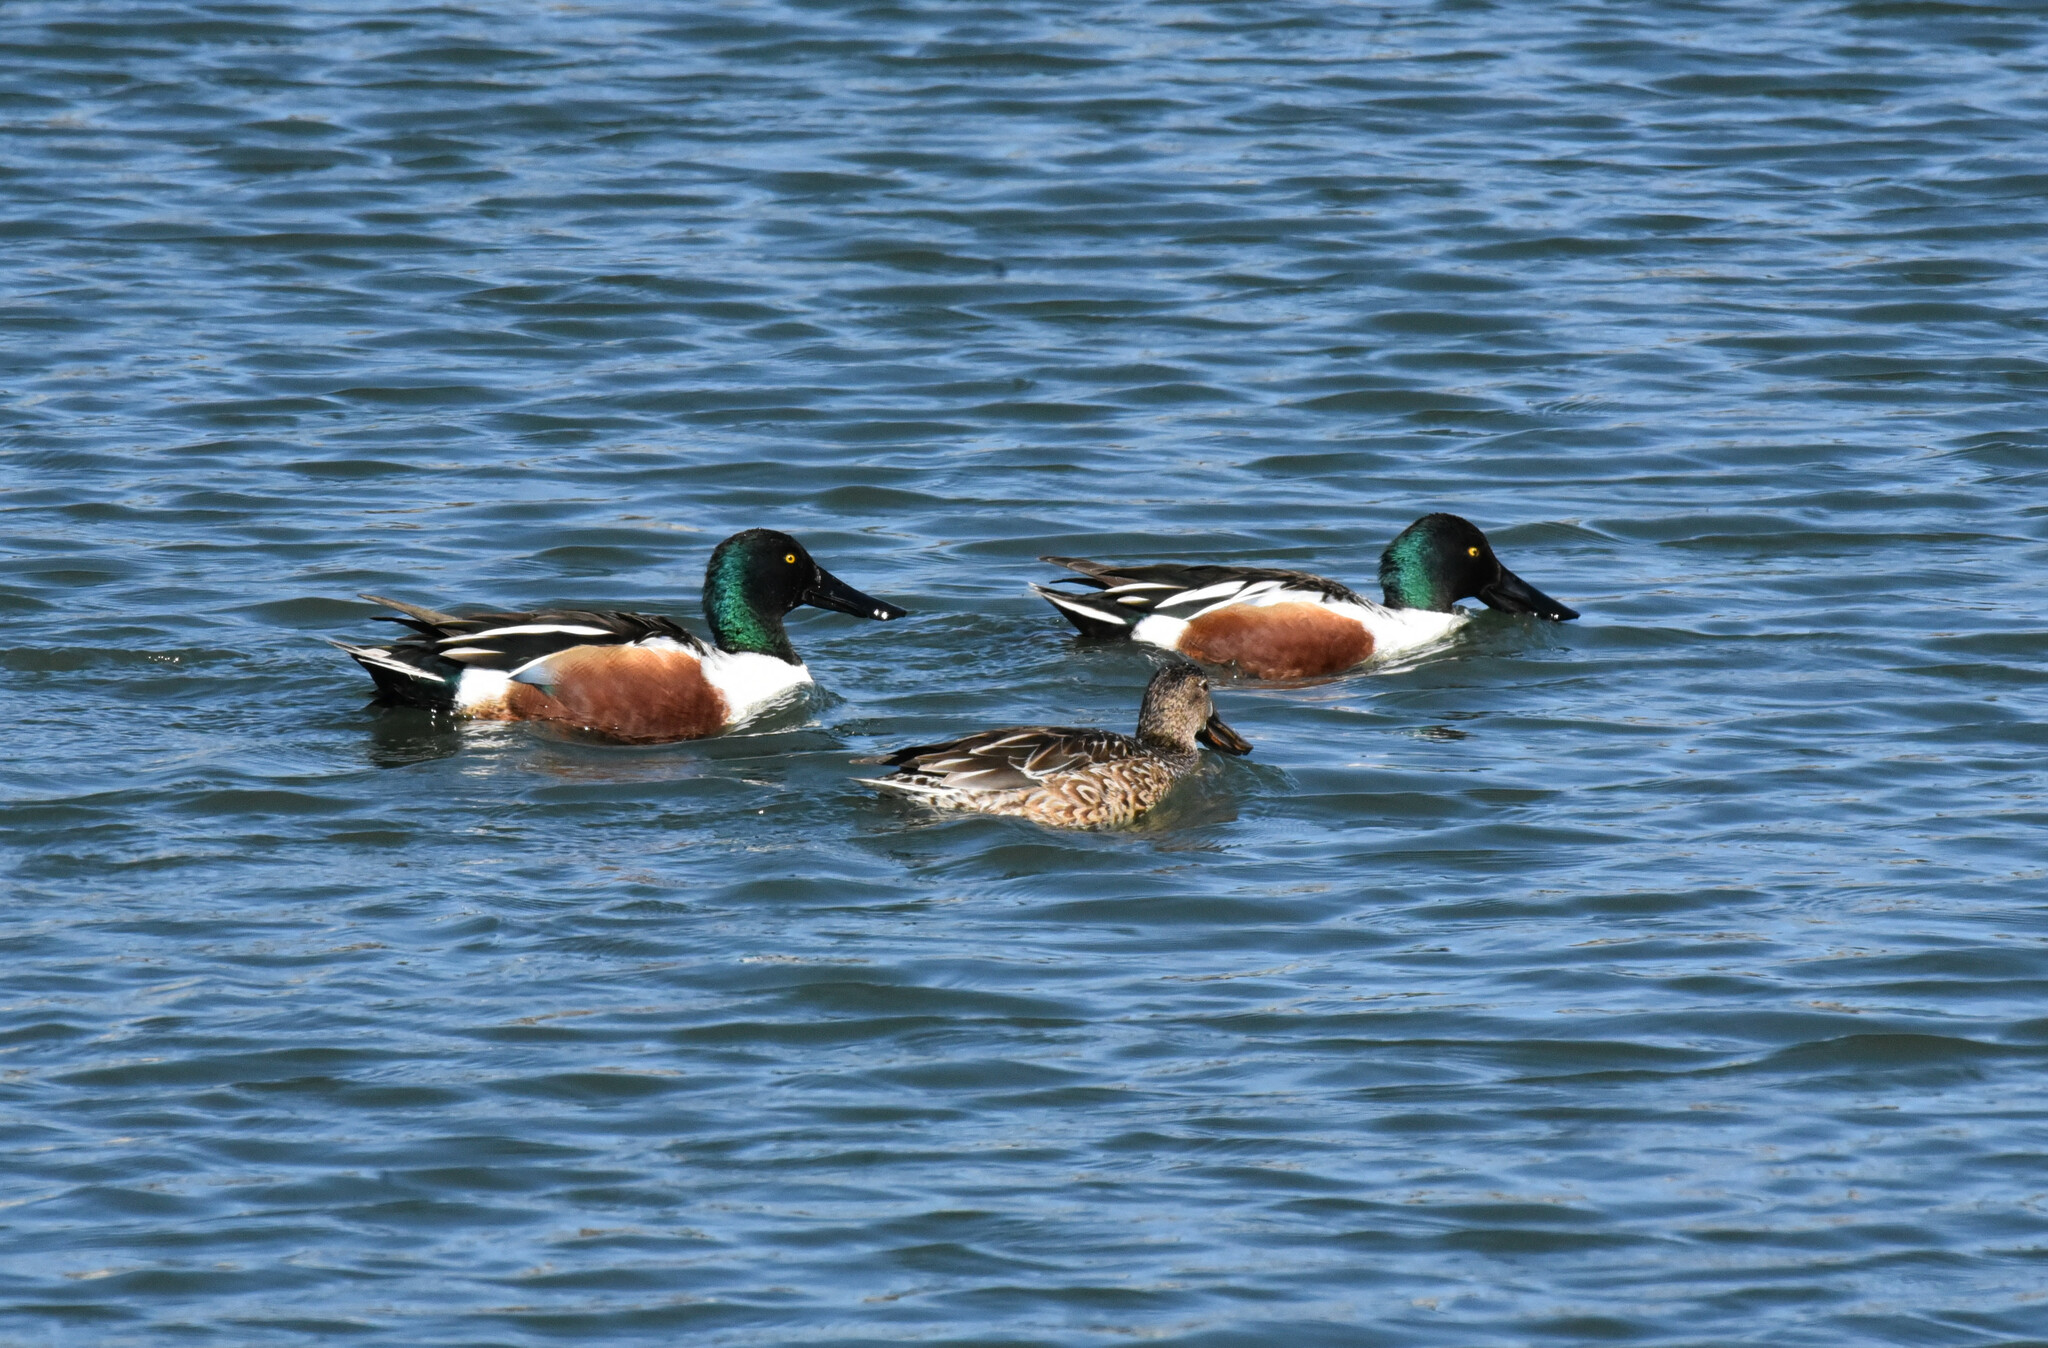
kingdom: Animalia
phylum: Chordata
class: Aves
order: Anseriformes
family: Anatidae
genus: Spatula
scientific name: Spatula clypeata
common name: Northern shoveler
